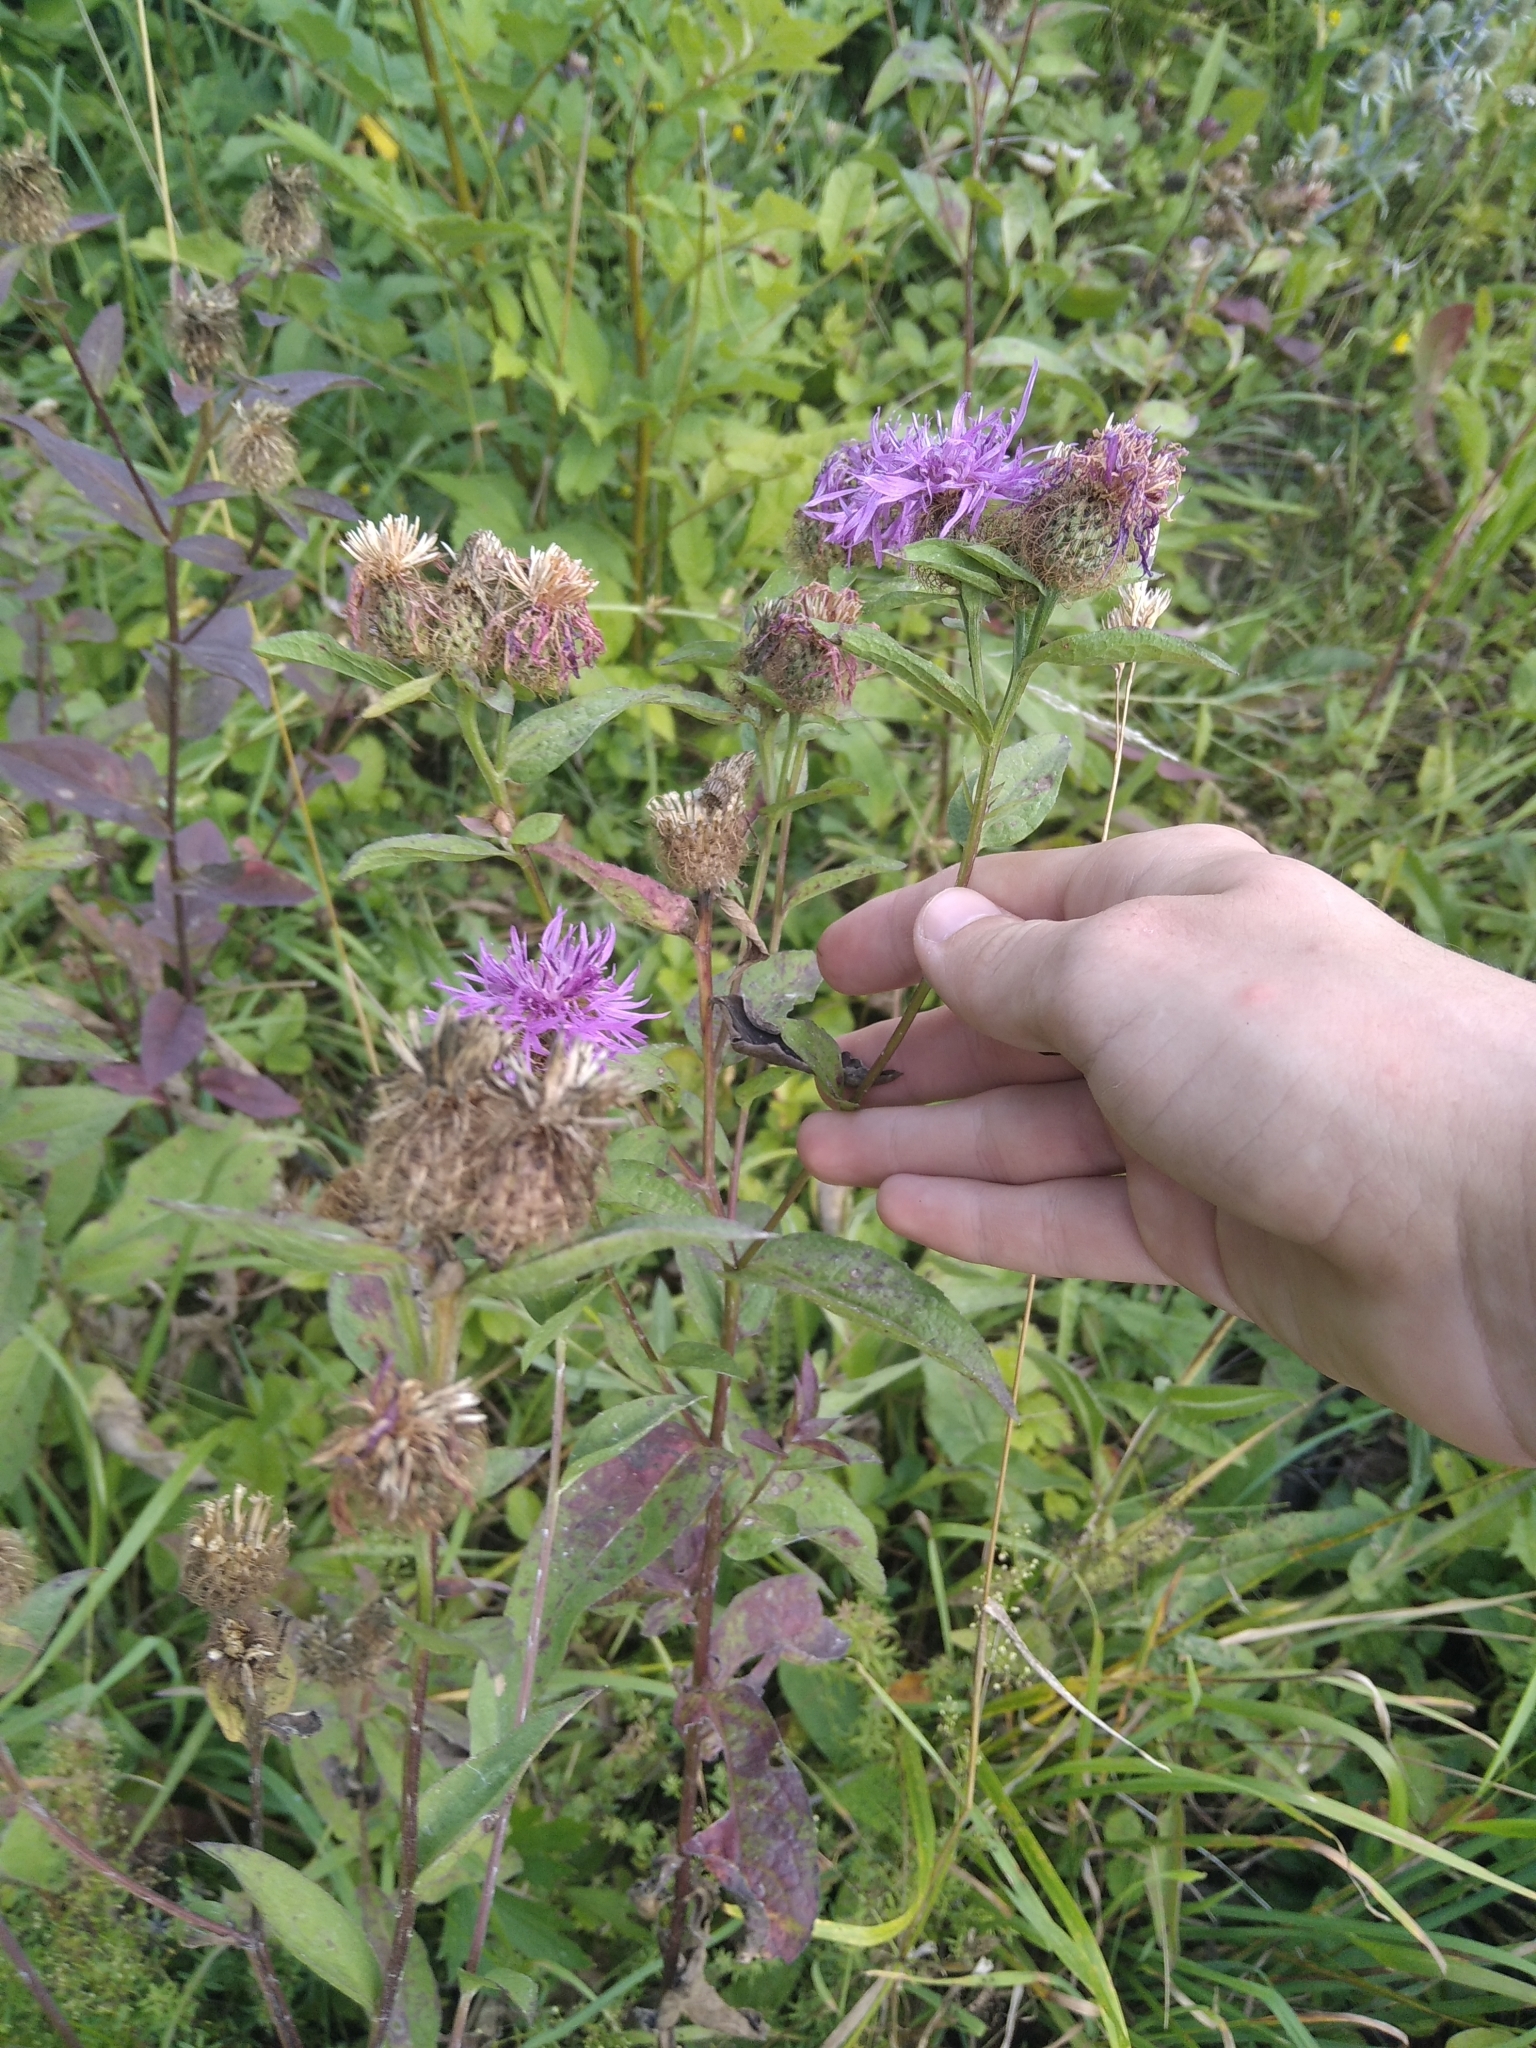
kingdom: Plantae
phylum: Tracheophyta
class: Magnoliopsida
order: Asterales
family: Asteraceae
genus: Centaurea
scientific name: Centaurea pseudophrygia
